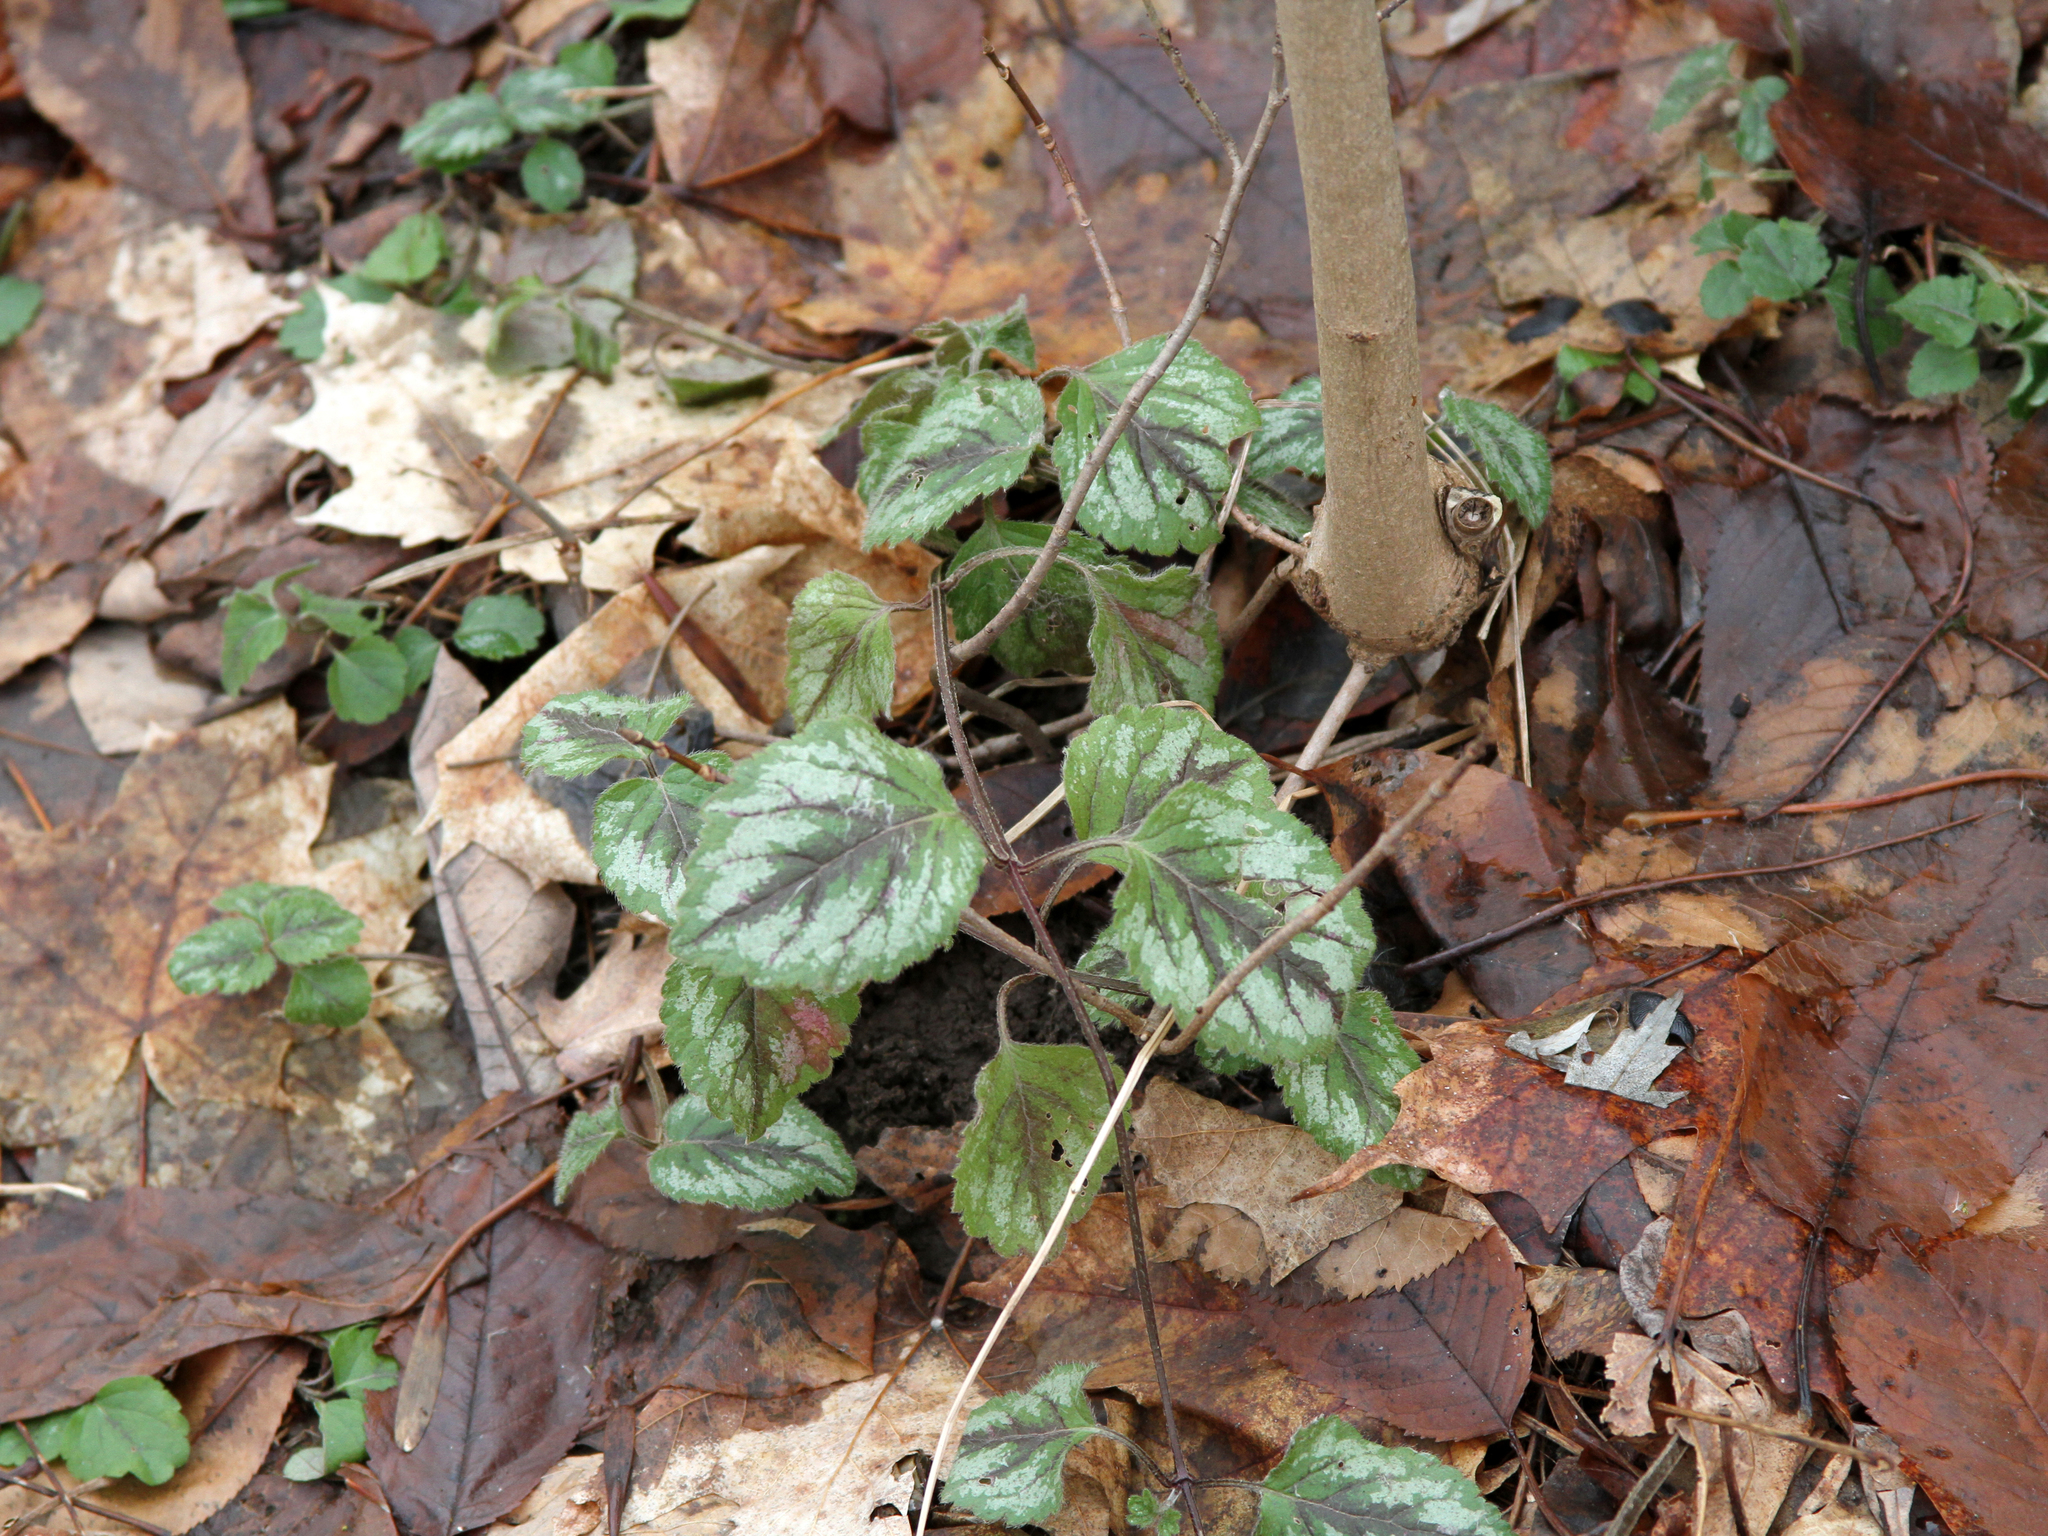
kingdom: Plantae
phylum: Tracheophyta
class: Magnoliopsida
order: Lamiales
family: Lamiaceae
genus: Lamium
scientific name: Lamium galeobdolon
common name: Yellow archangel
